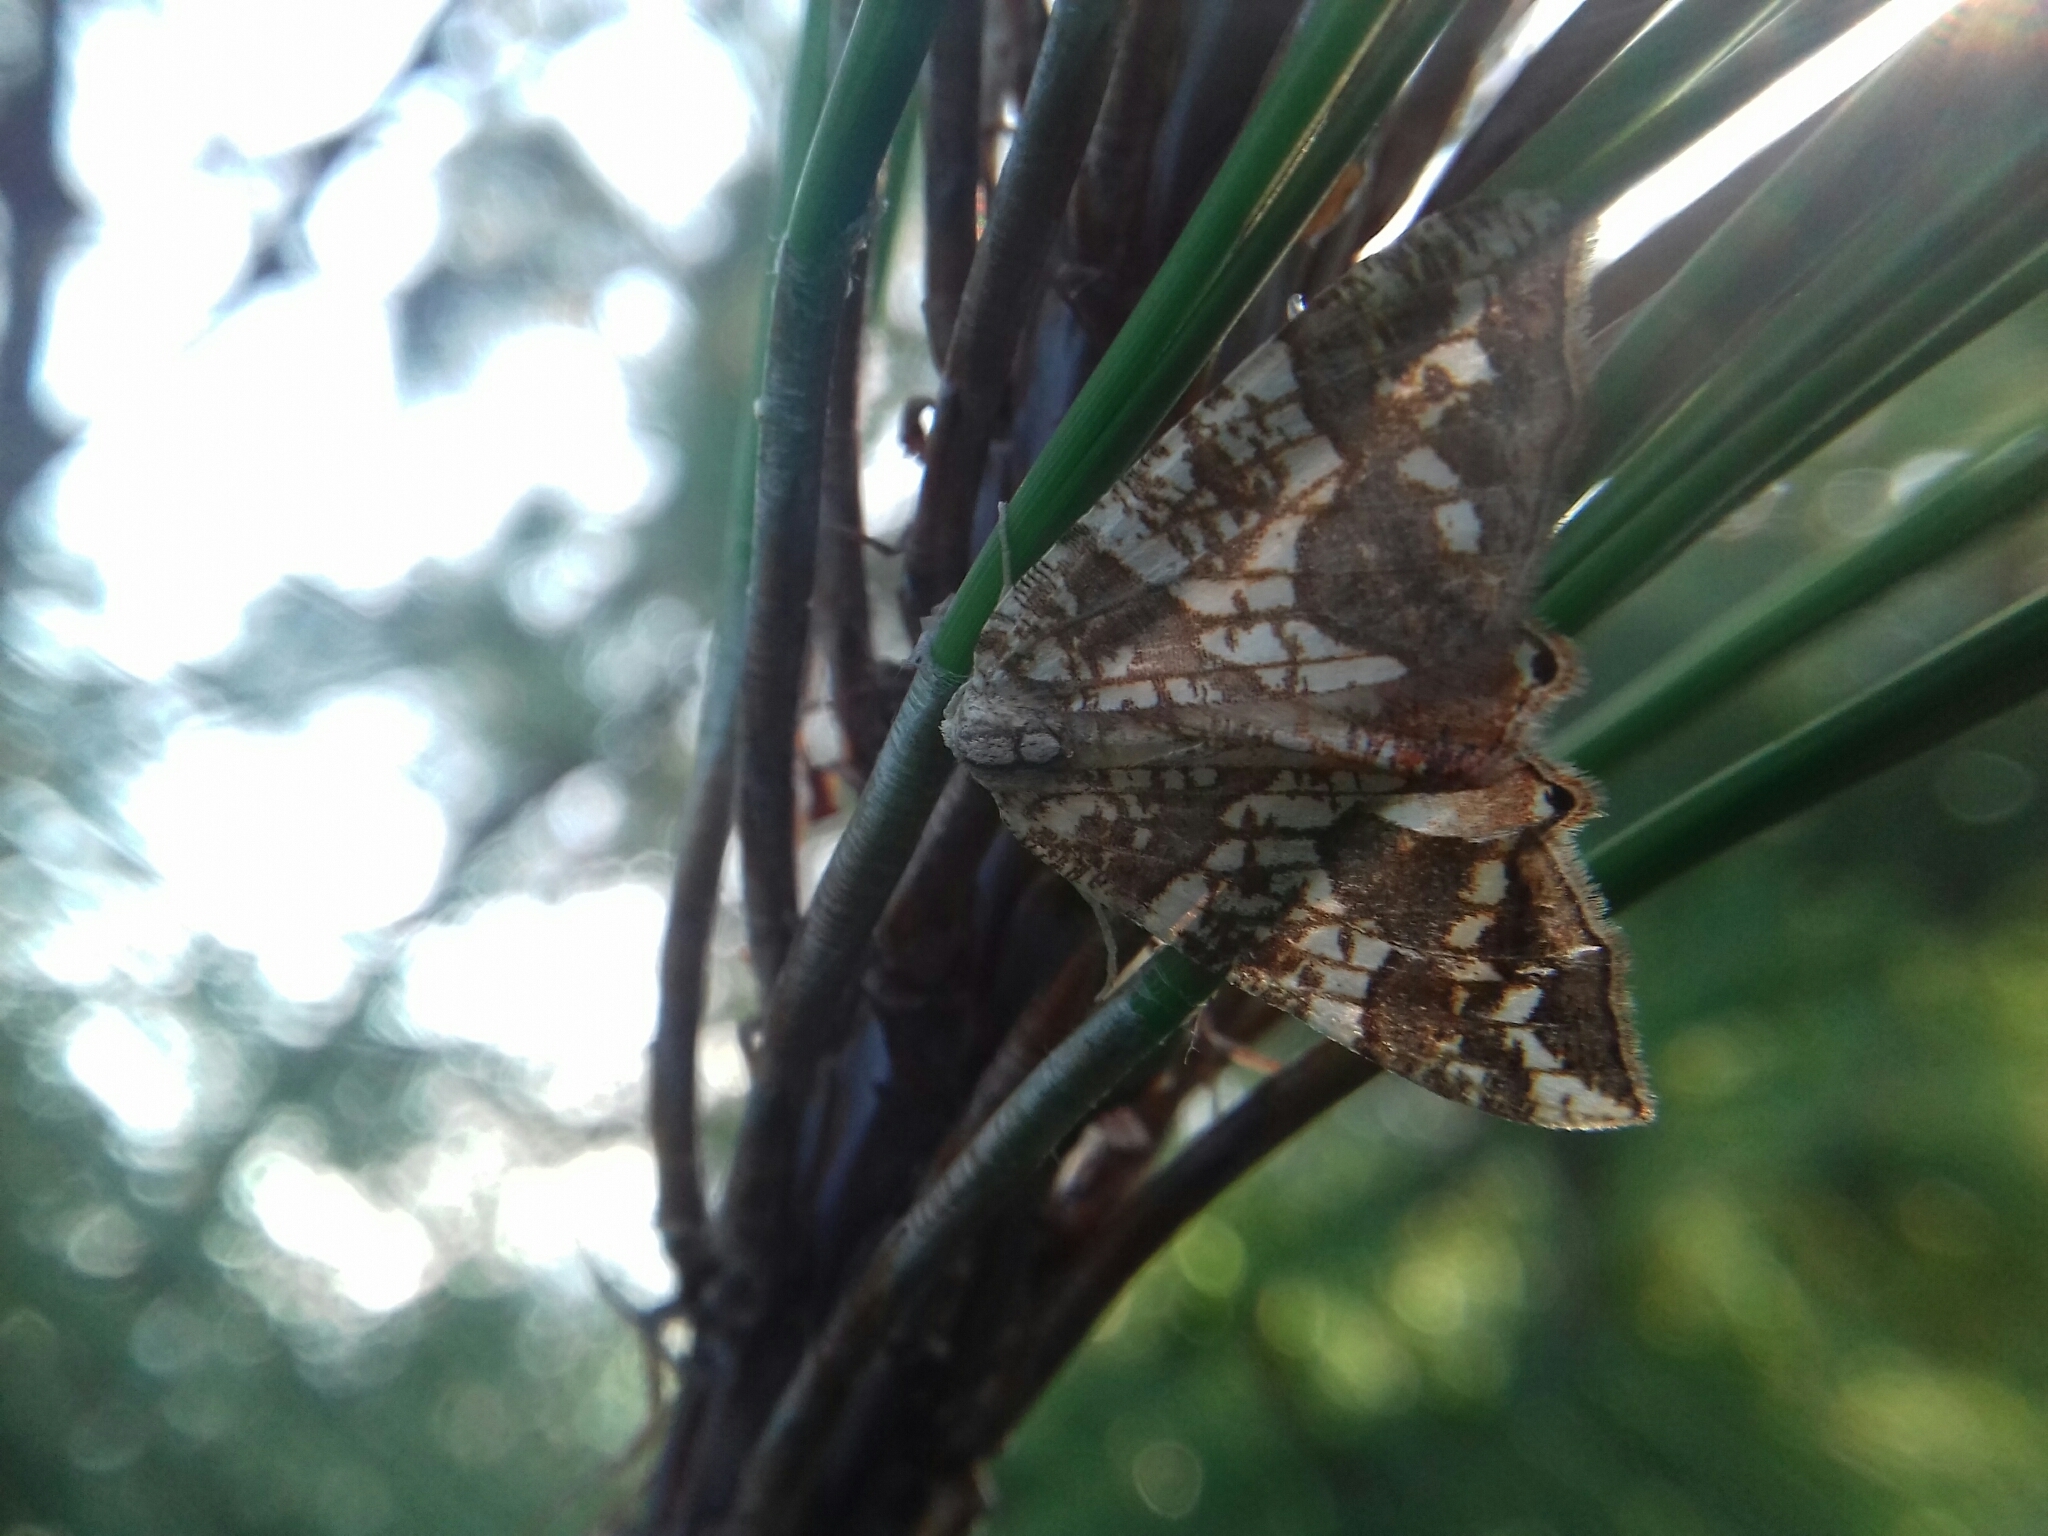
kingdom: Animalia
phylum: Arthropoda
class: Insecta
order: Lepidoptera
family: Geometridae
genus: Rindgeria
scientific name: Rindgeria ornata
